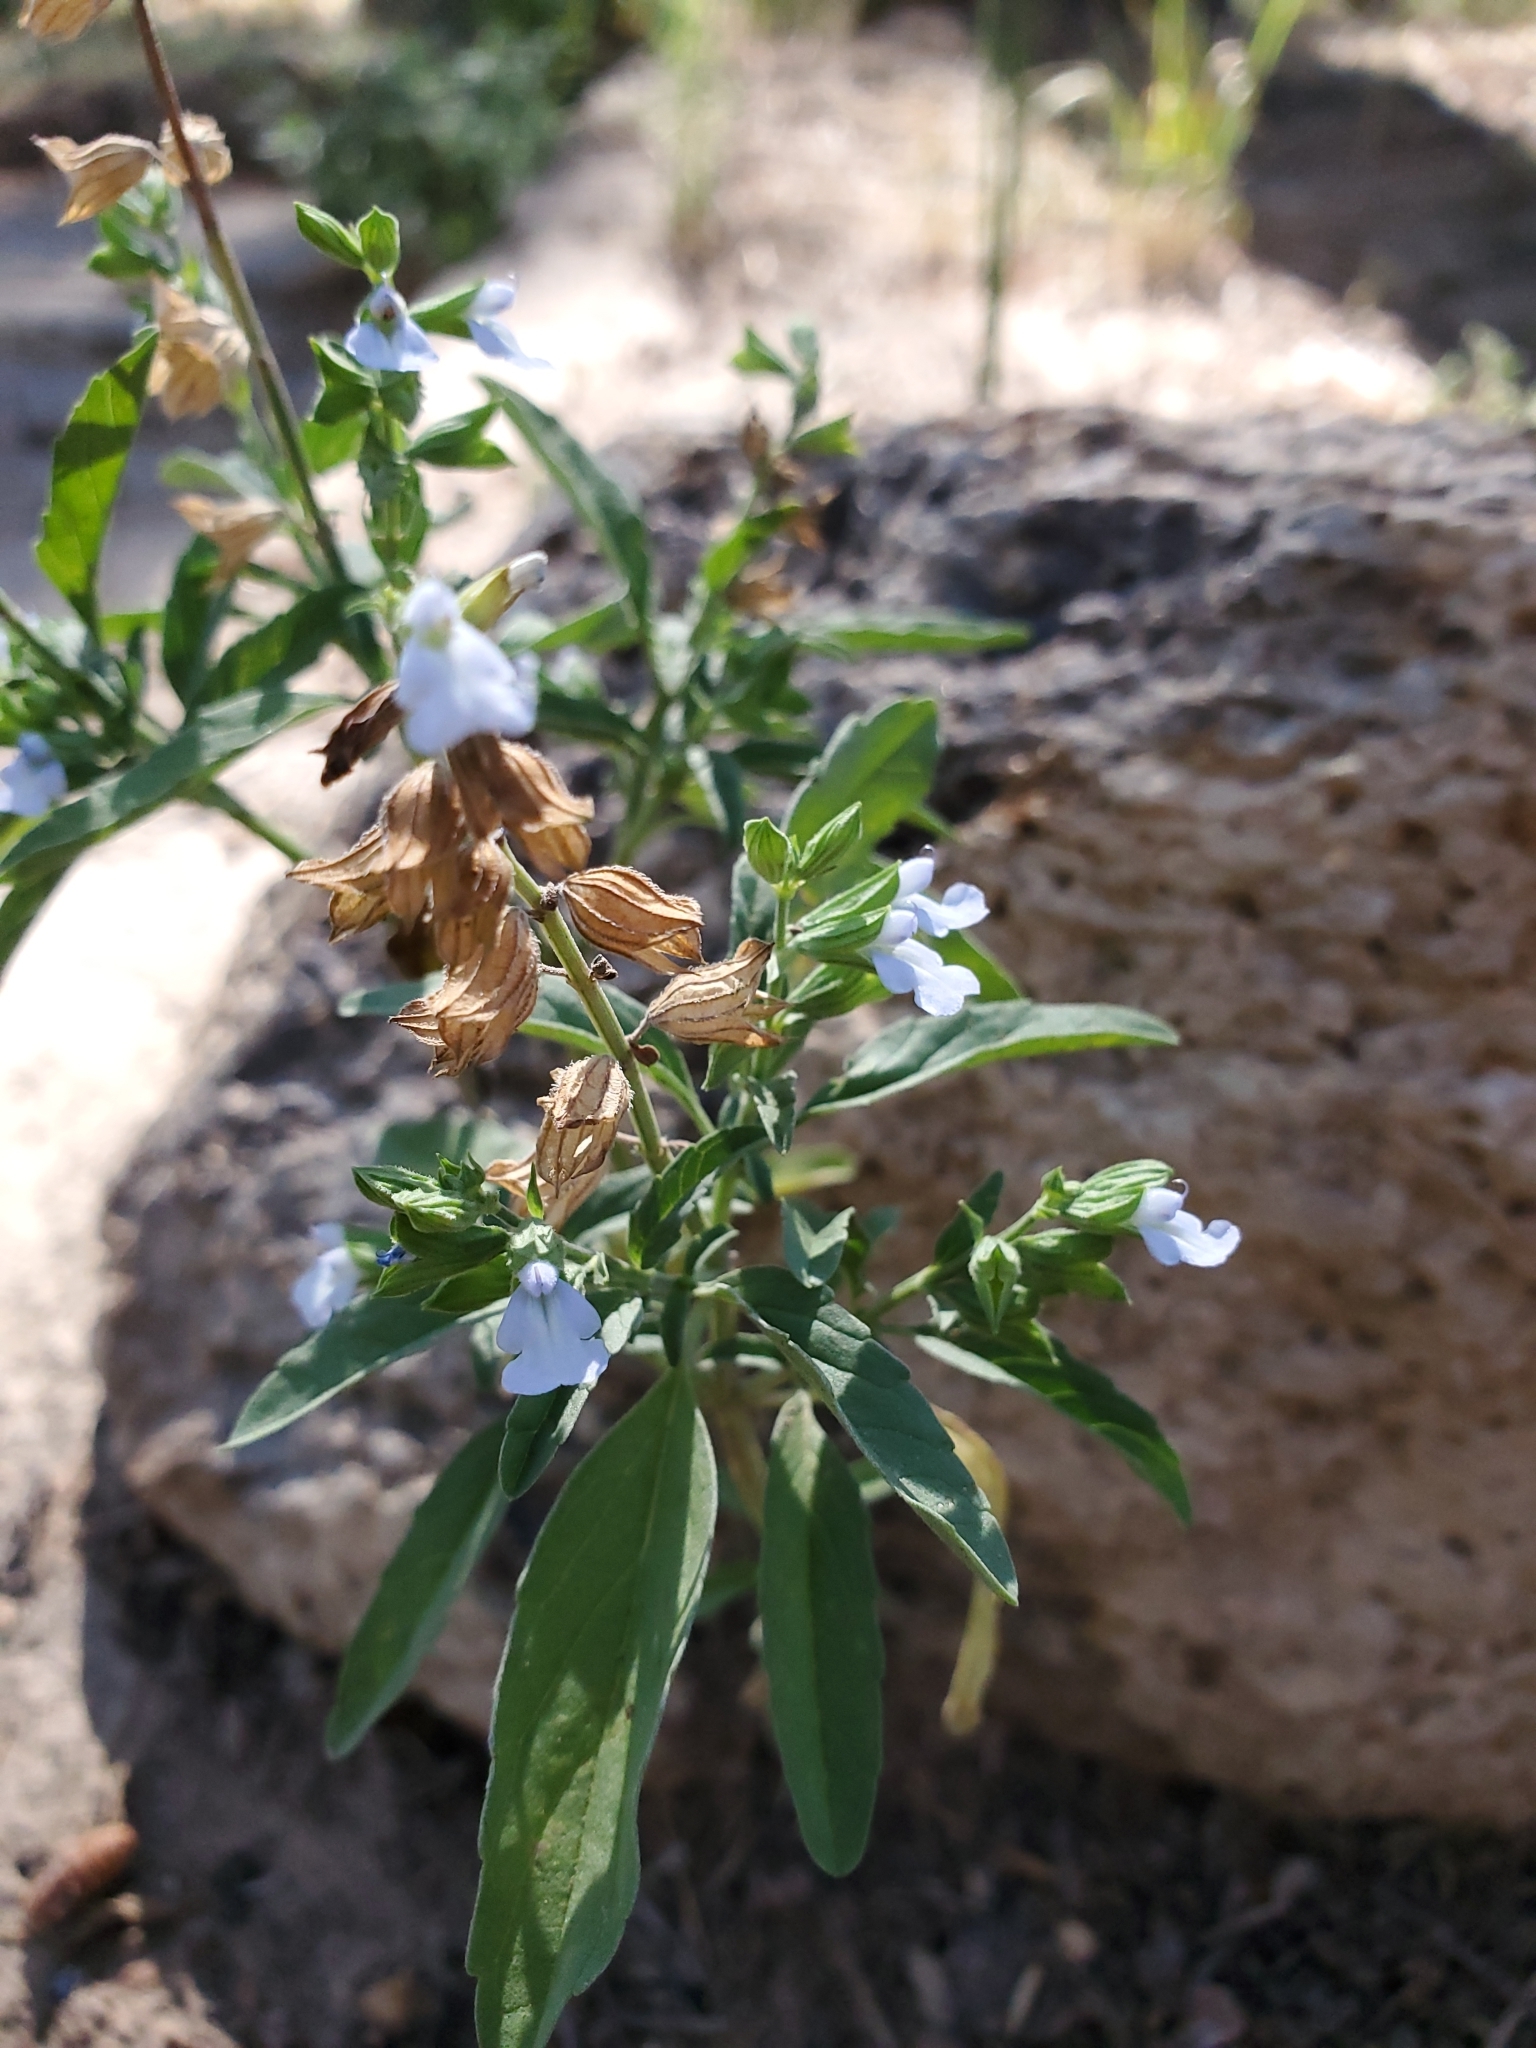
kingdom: Plantae
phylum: Tracheophyta
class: Magnoliopsida
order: Lamiales
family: Lamiaceae
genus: Salvia
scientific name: Salvia reflexa
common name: Mintweed
